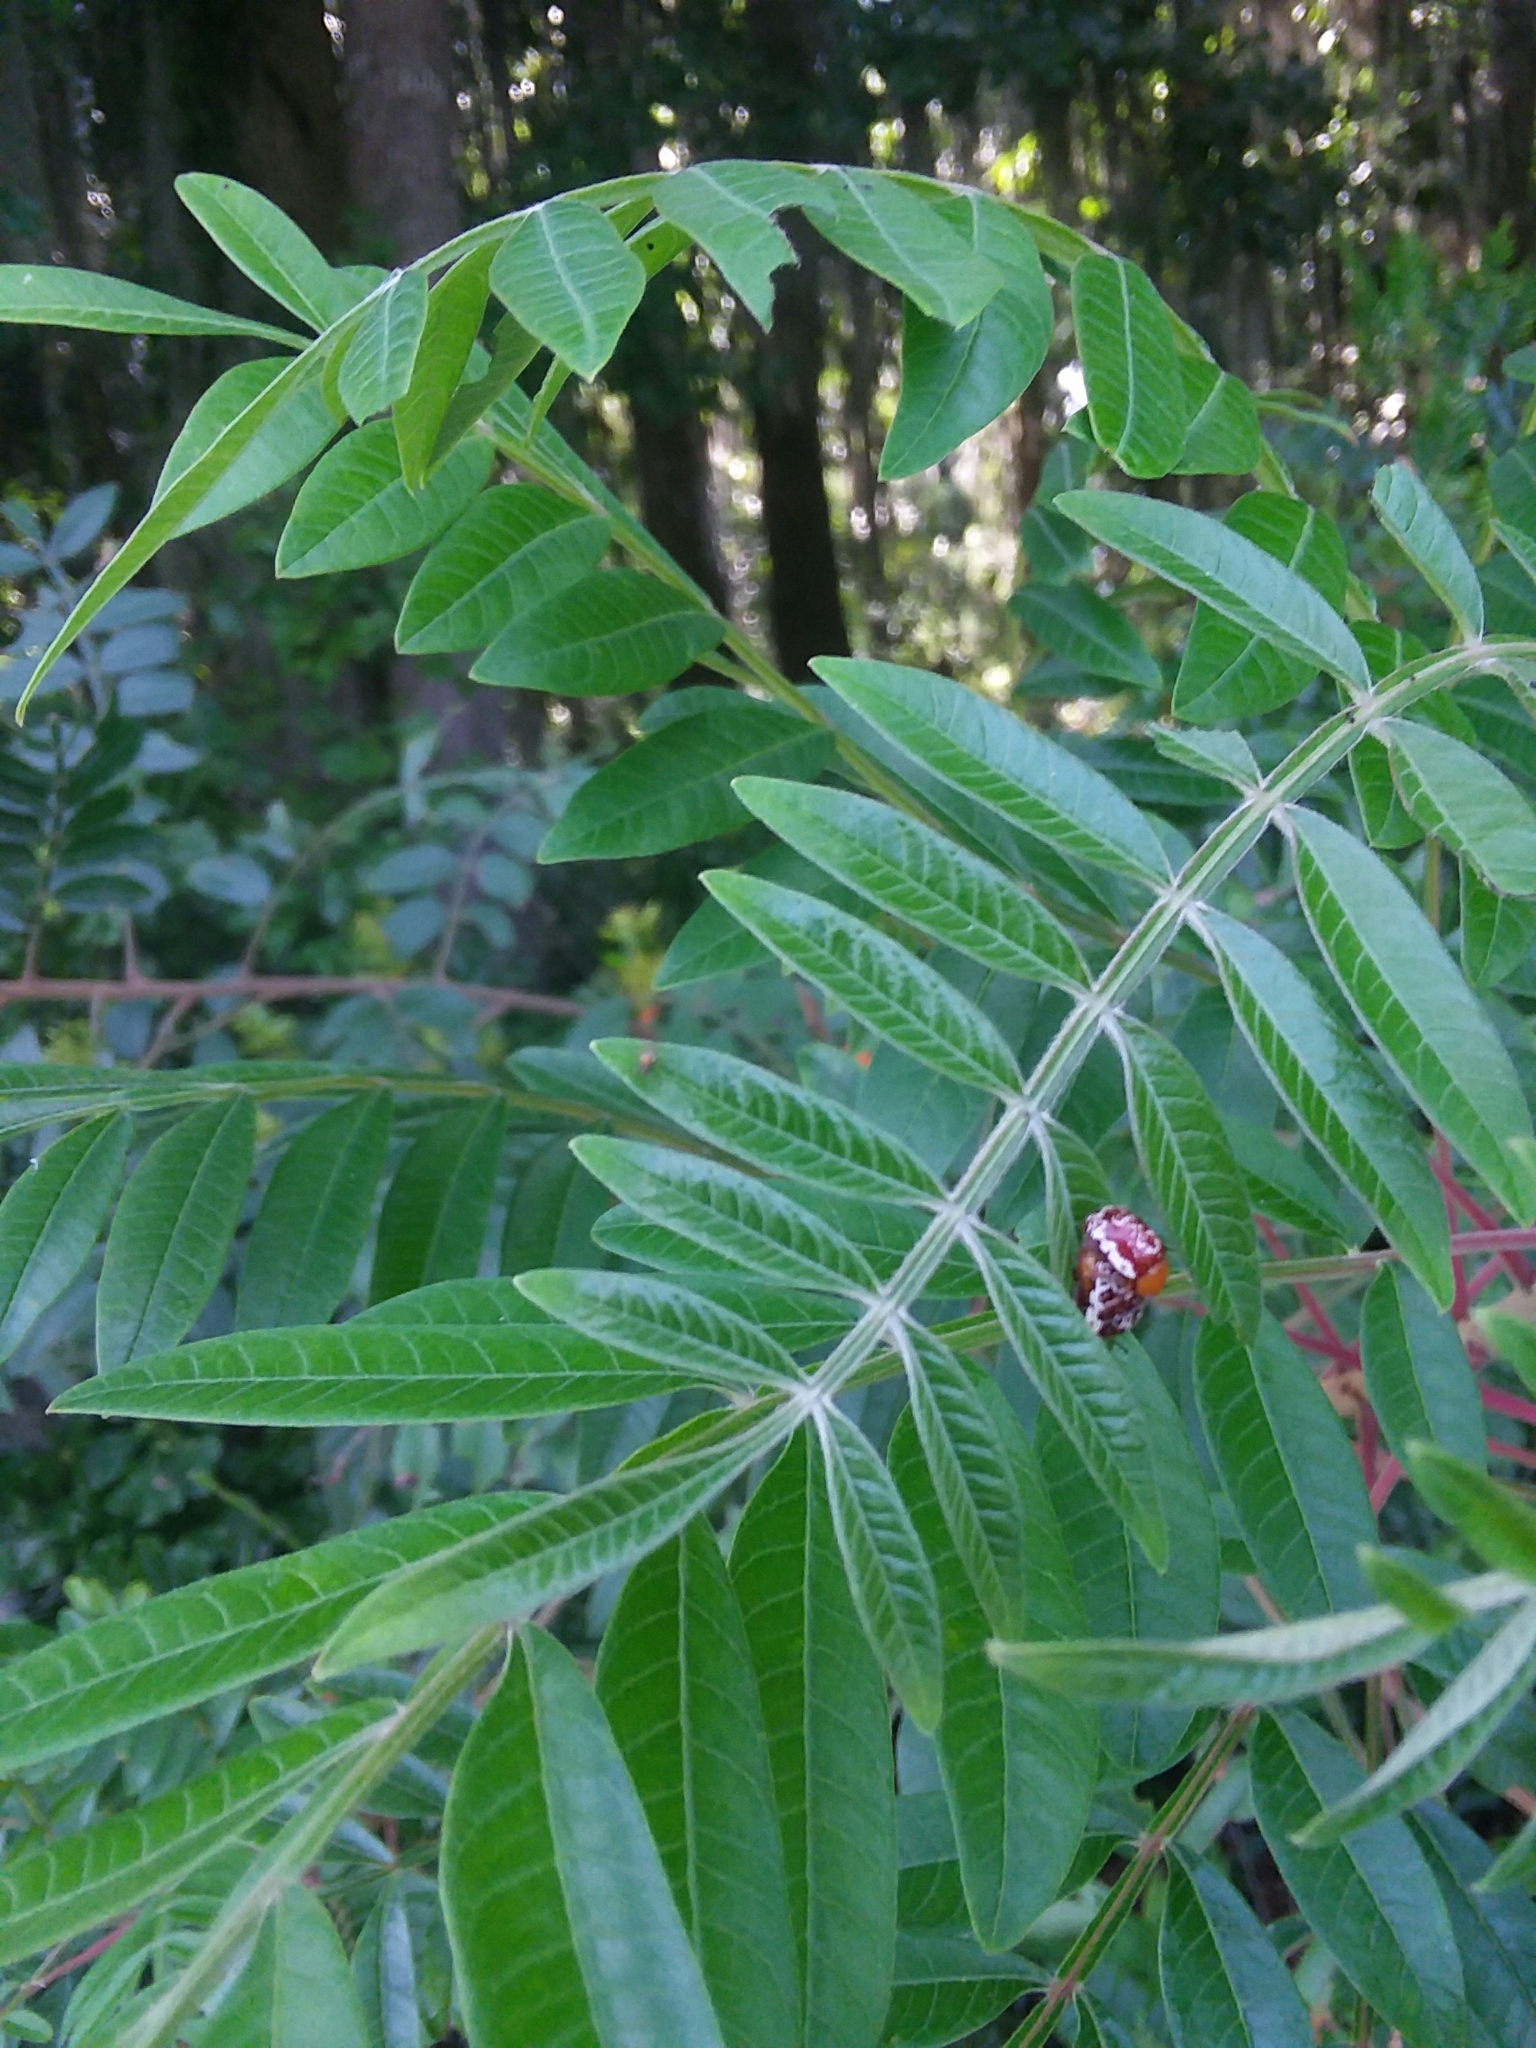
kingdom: Animalia
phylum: Arthropoda
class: Insecta
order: Coleoptera
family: Chrysomelidae
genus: Blepharida
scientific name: Blepharida rhois
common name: Sumac flea beetle
